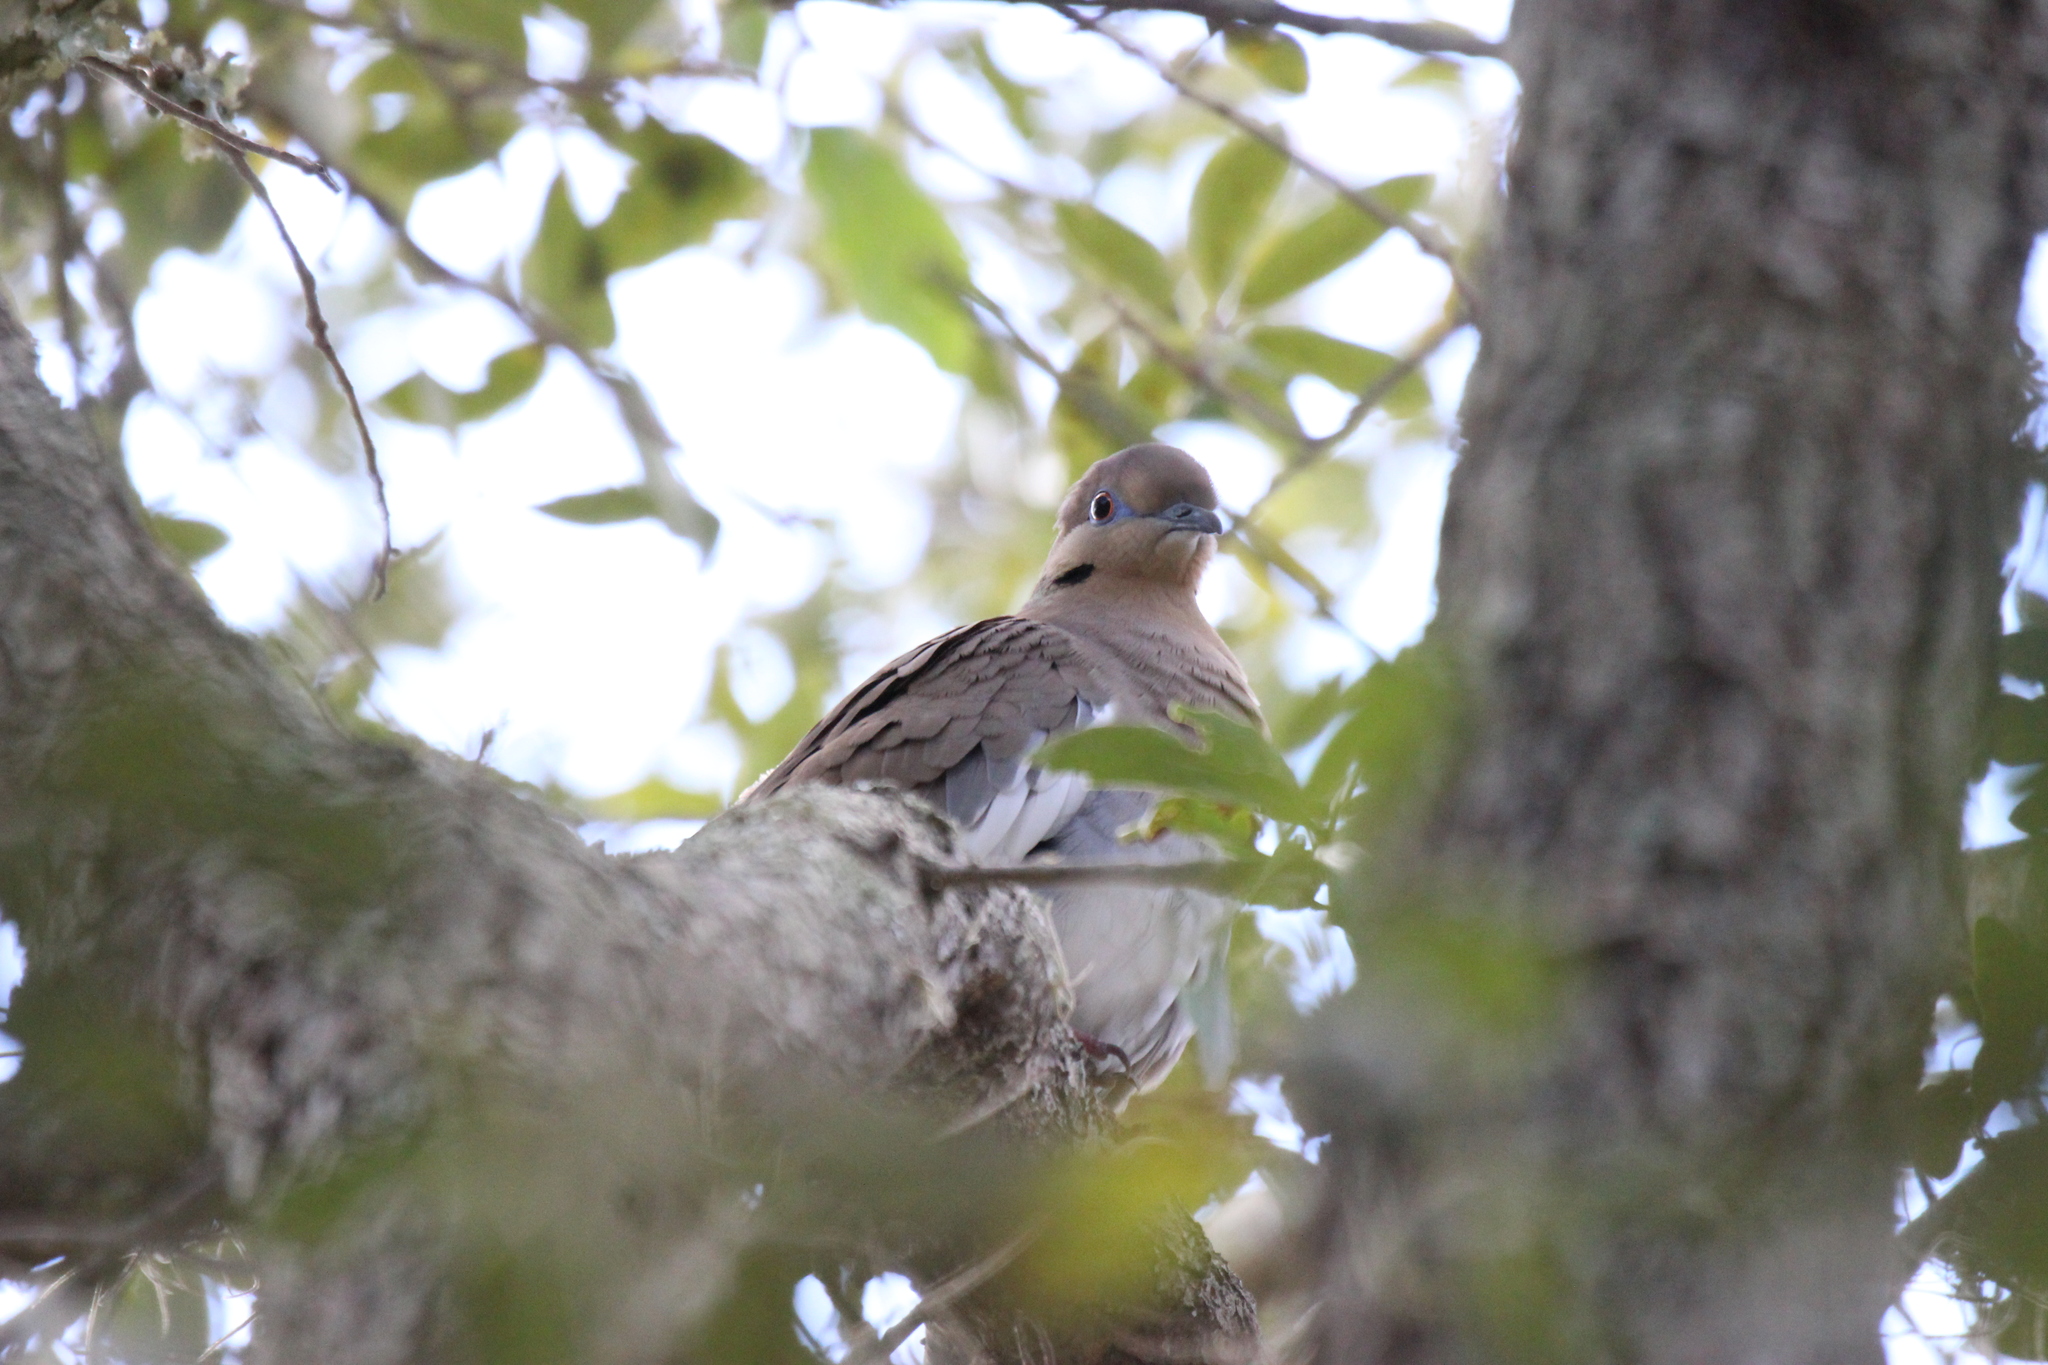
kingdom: Animalia
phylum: Chordata
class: Aves
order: Columbiformes
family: Columbidae
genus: Zenaida
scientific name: Zenaida asiatica
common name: White-winged dove
